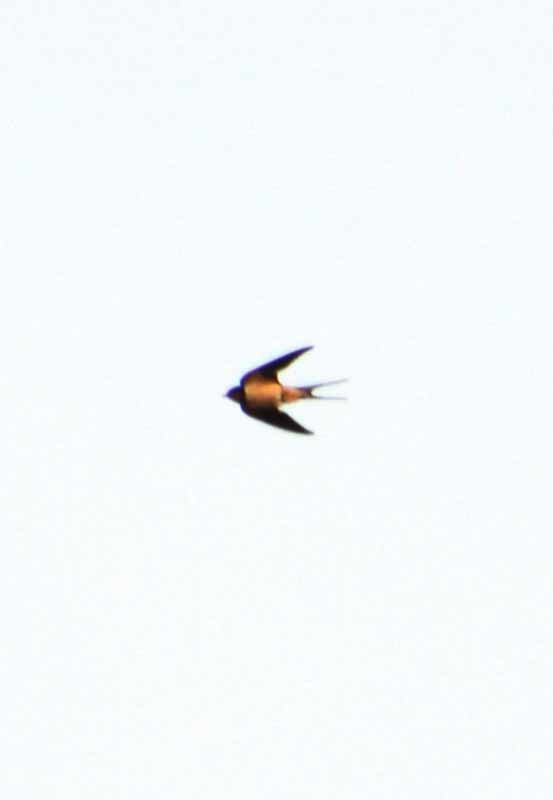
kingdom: Animalia
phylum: Chordata
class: Aves
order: Passeriformes
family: Hirundinidae
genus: Hirundo
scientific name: Hirundo rustica
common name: Barn swallow
